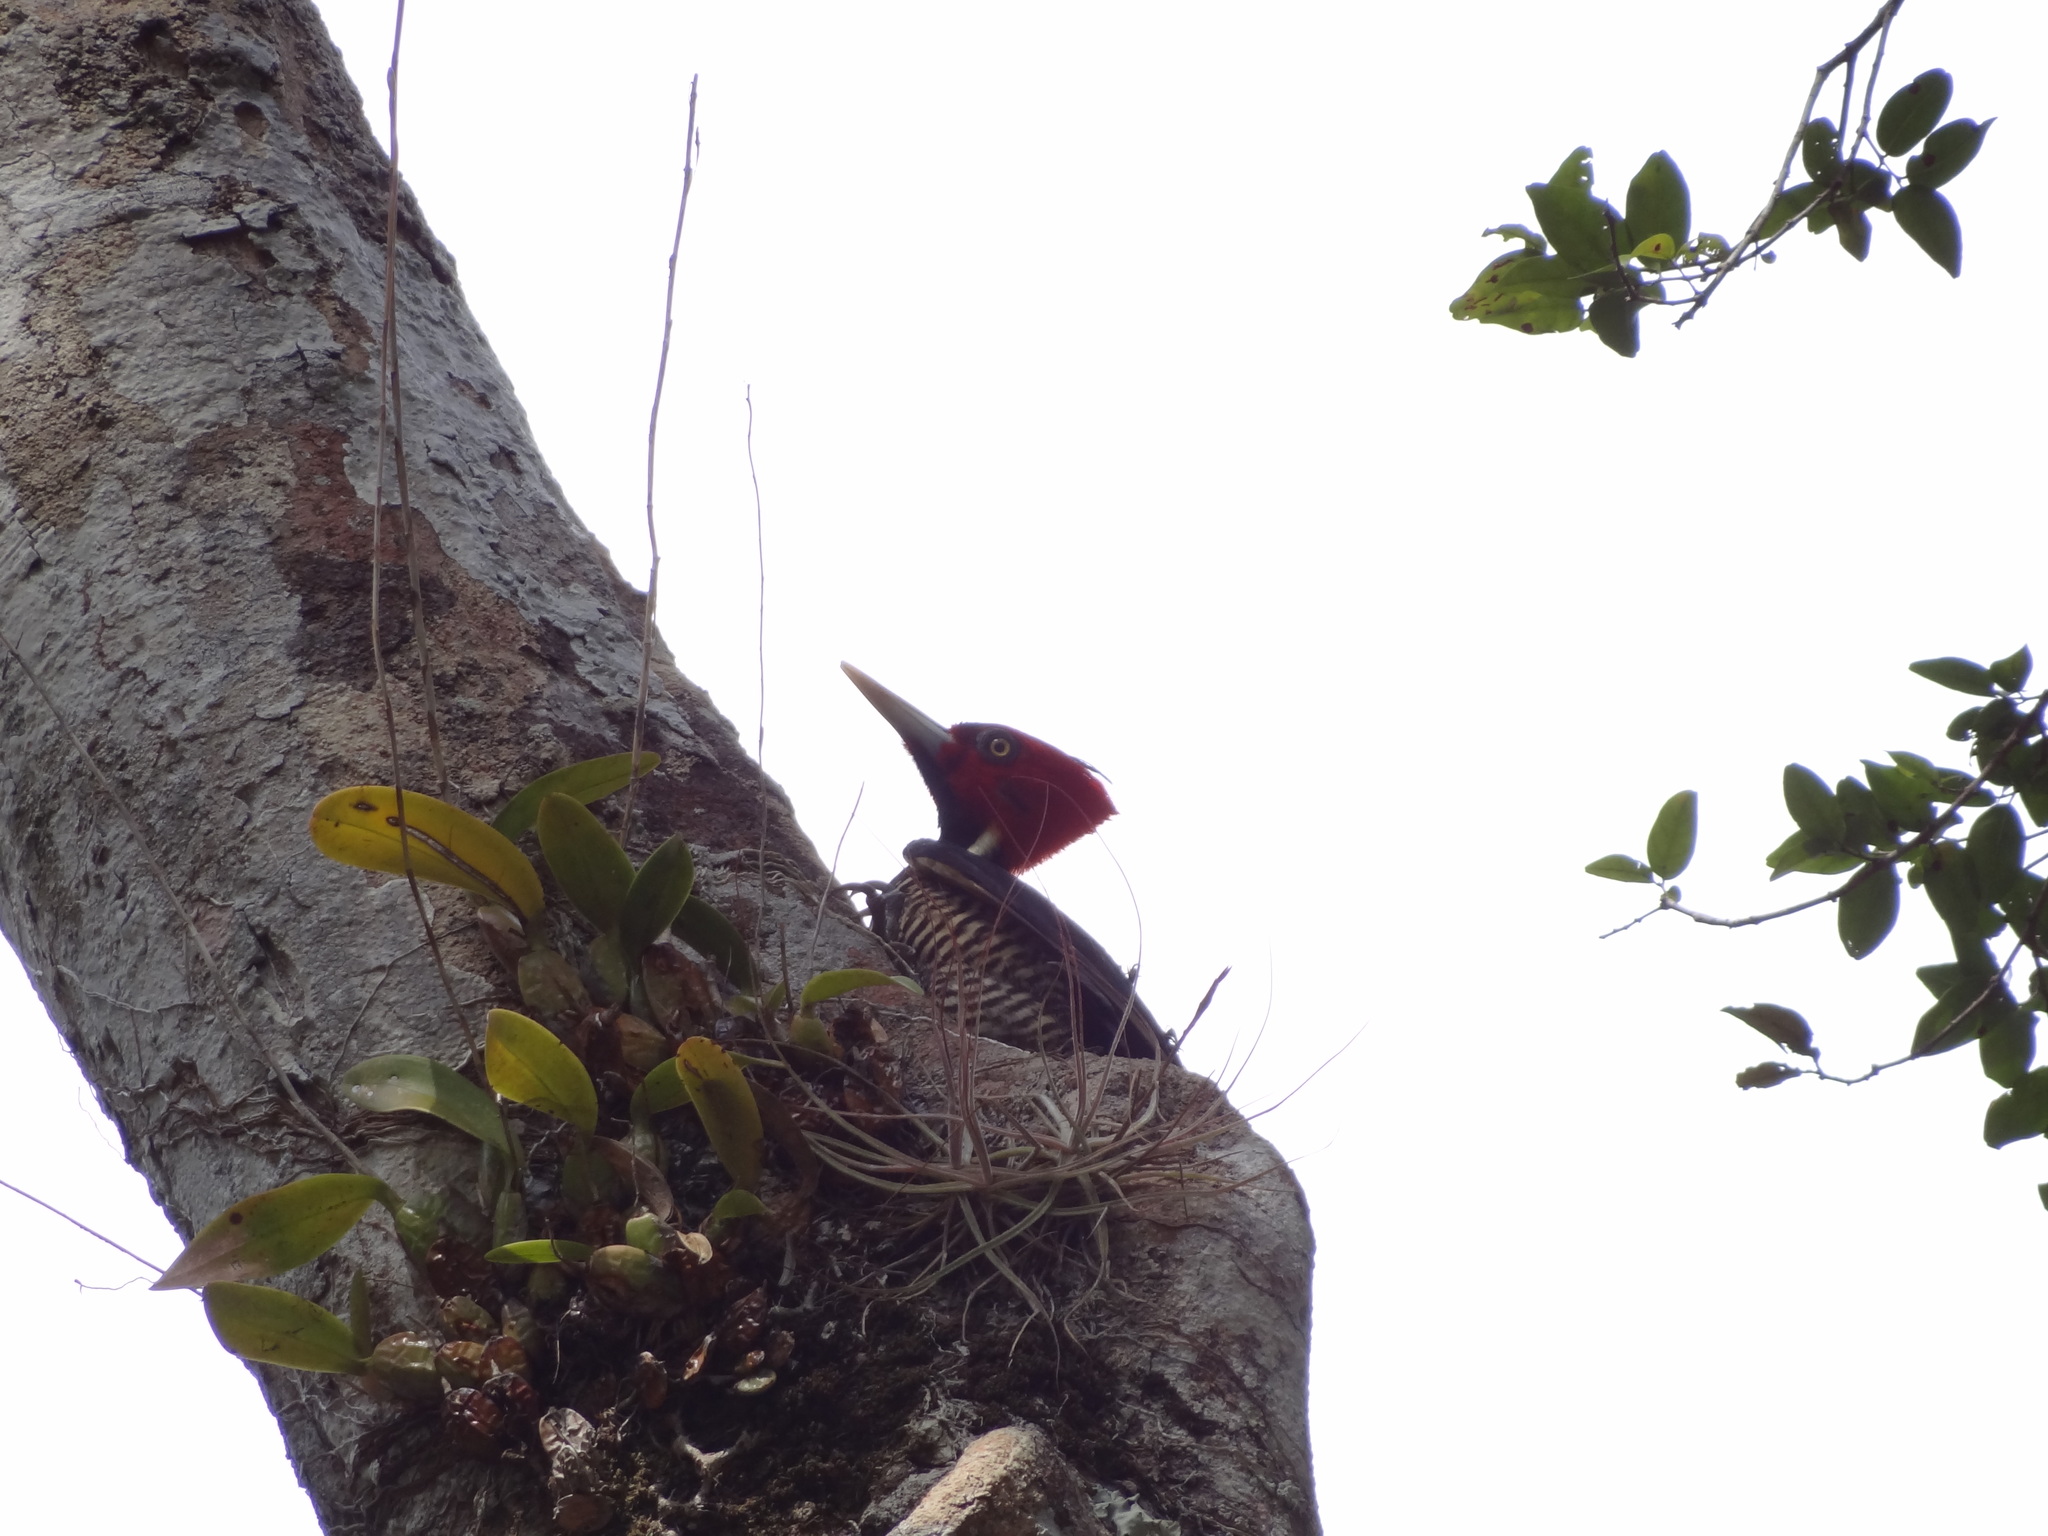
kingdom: Animalia
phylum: Chordata
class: Aves
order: Piciformes
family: Picidae
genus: Campephilus
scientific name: Campephilus guatemalensis
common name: Pale-billed woodpecker
